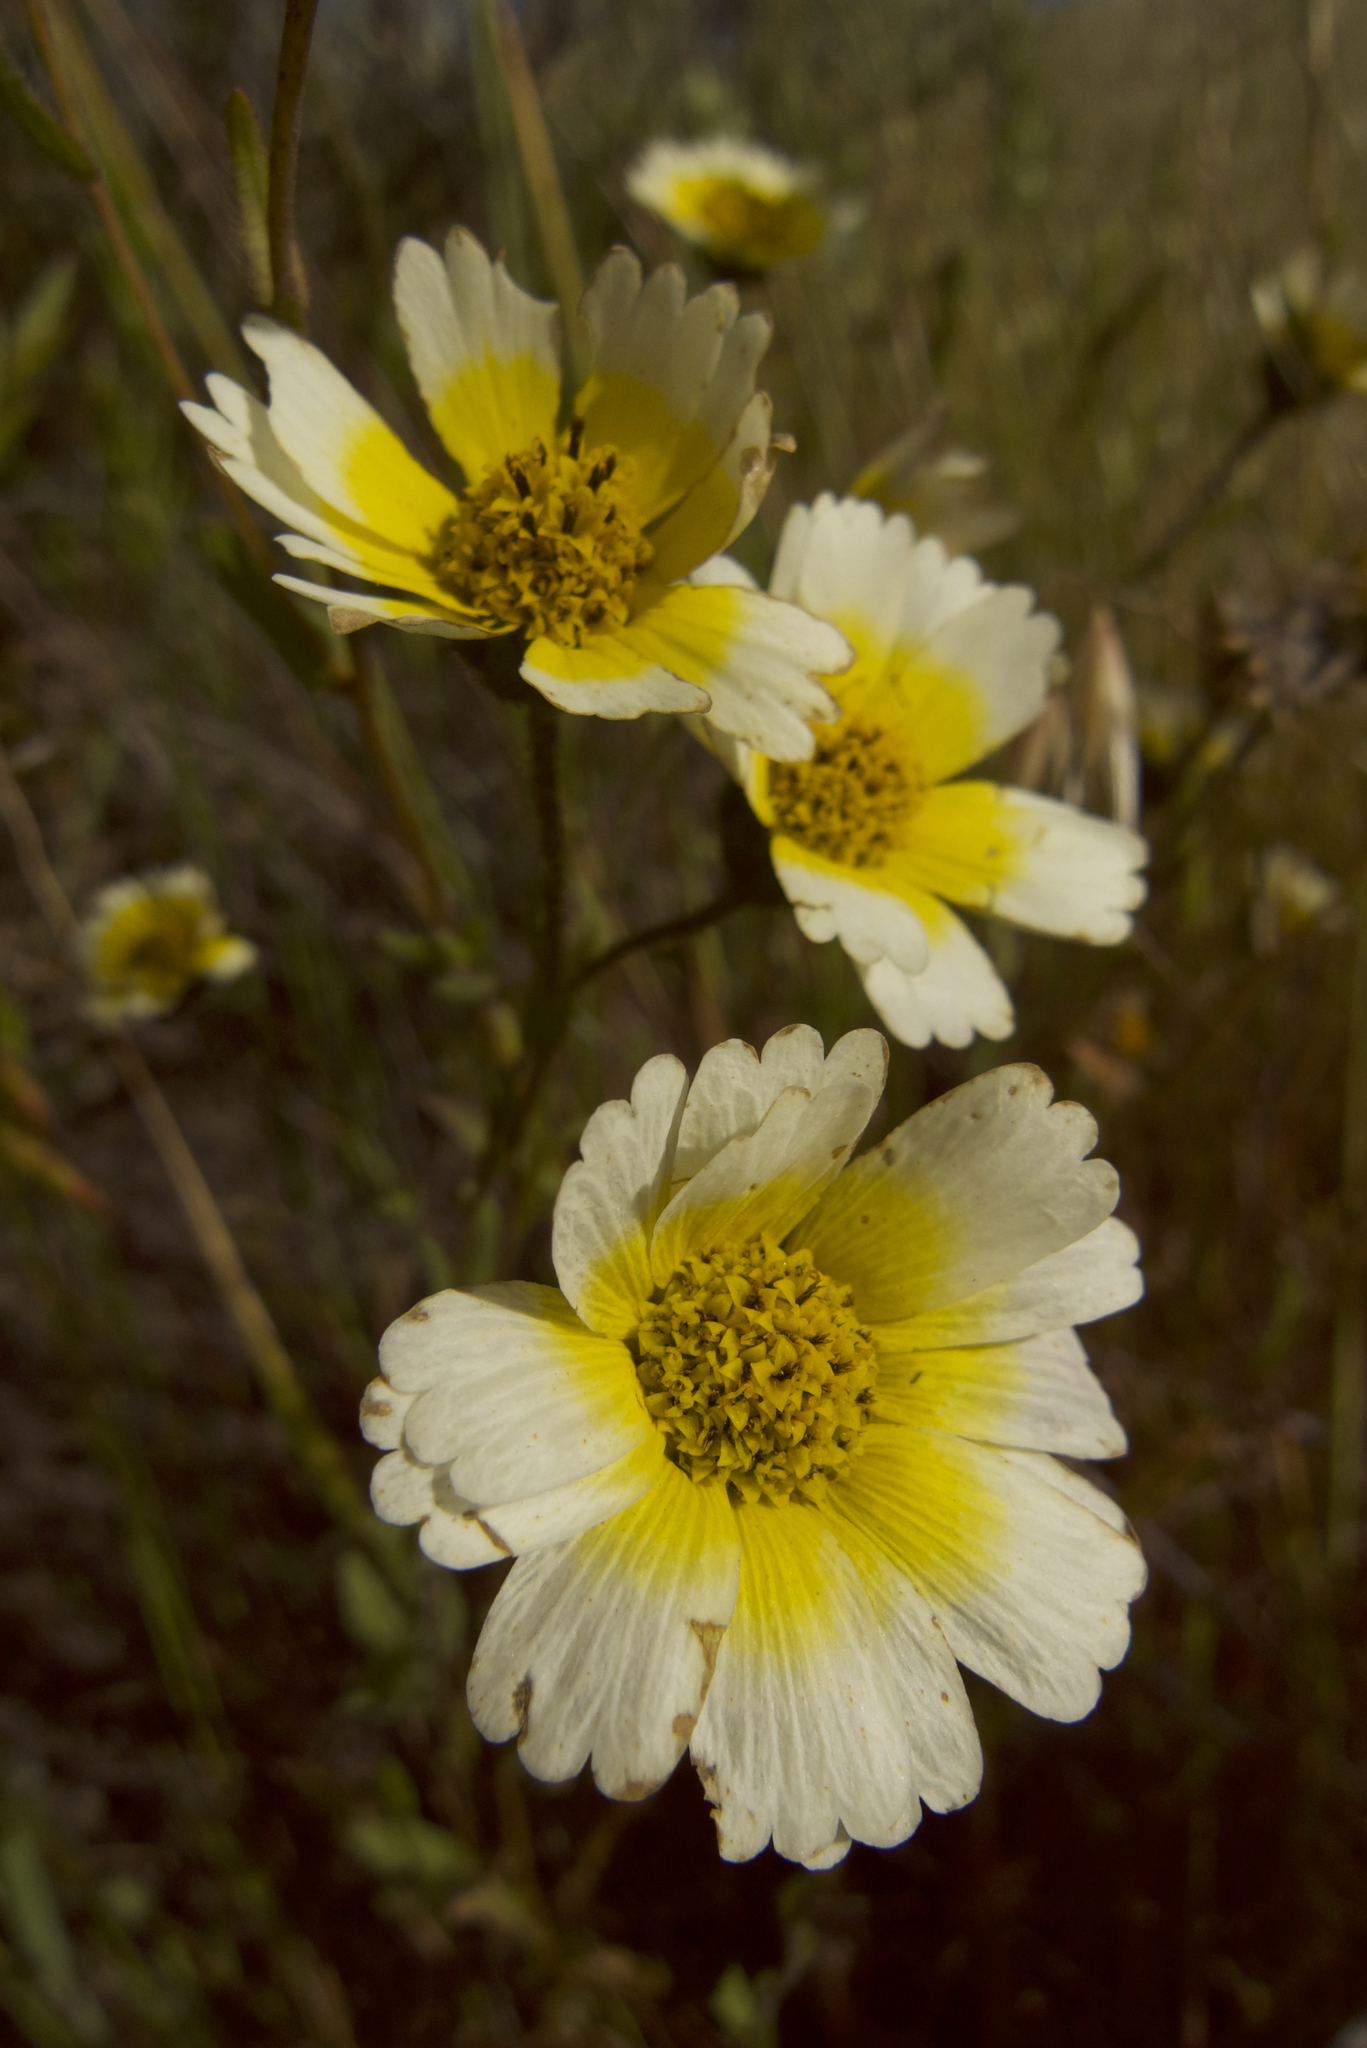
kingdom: Plantae
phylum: Tracheophyta
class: Magnoliopsida
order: Asterales
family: Asteraceae
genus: Layia
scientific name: Layia gaillardioides
